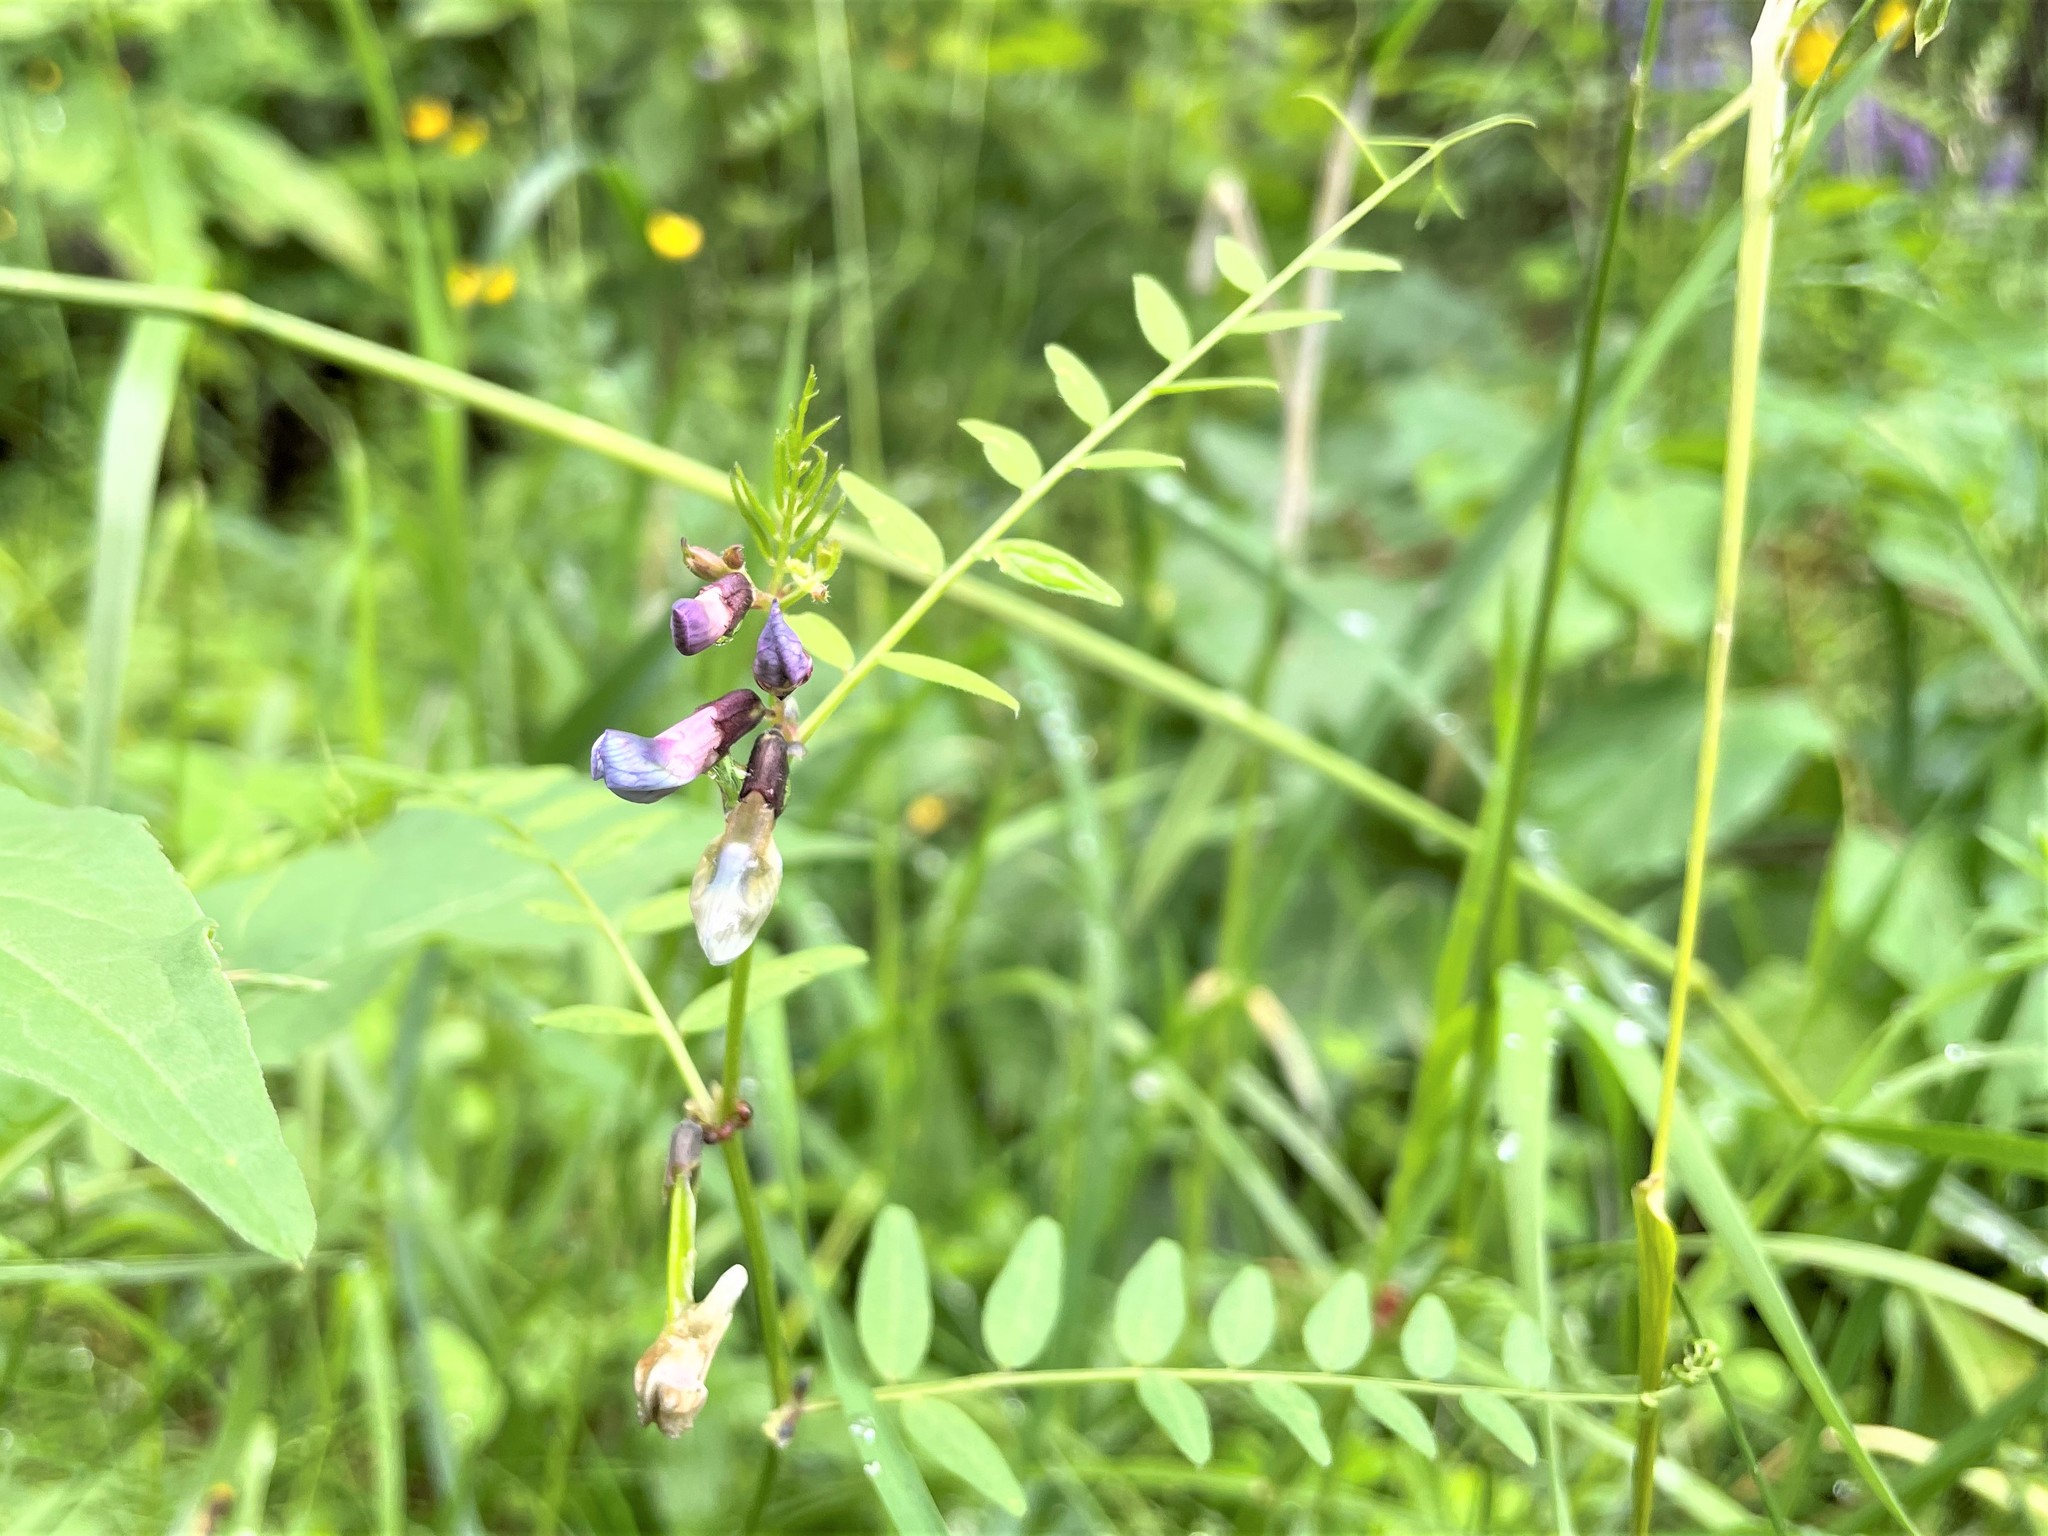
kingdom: Plantae
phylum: Tracheophyta
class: Magnoliopsida
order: Fabales
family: Fabaceae
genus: Vicia
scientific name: Vicia sepium
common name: Bush vetch
